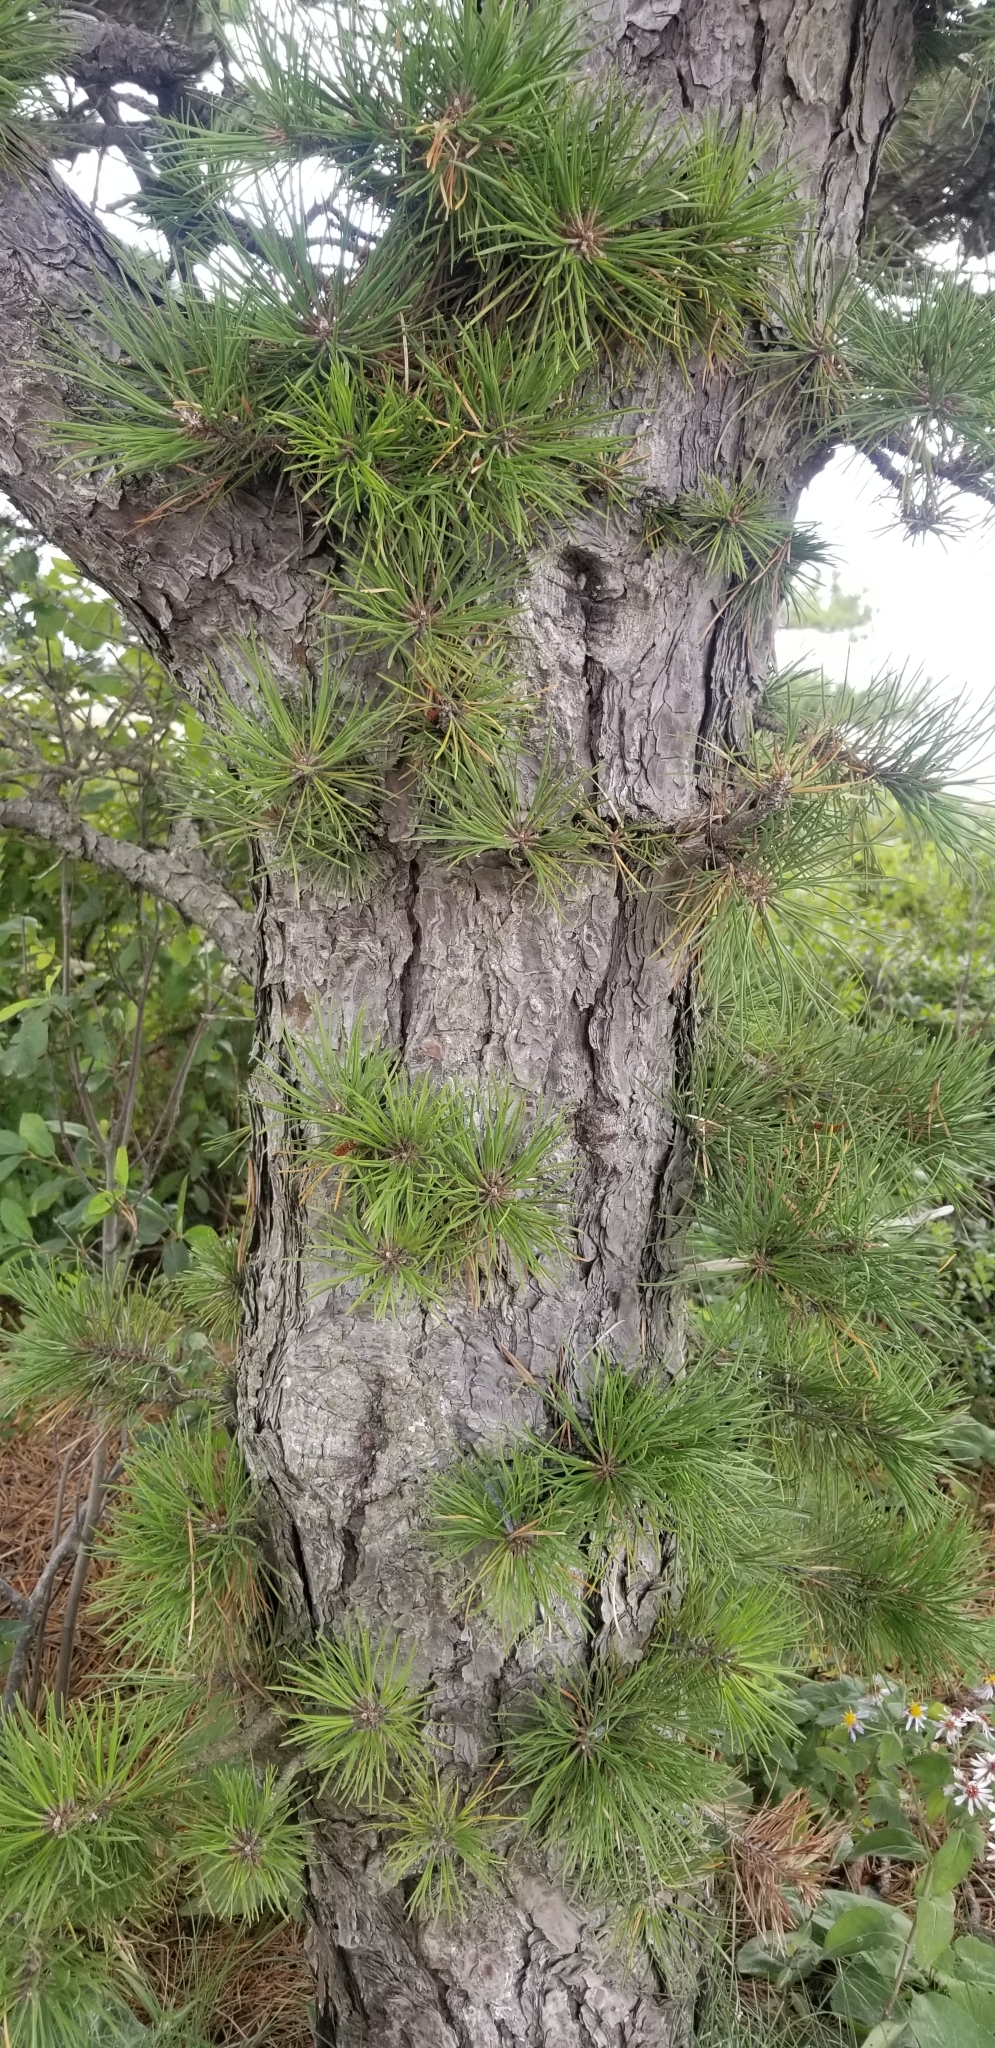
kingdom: Plantae
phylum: Tracheophyta
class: Pinopsida
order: Pinales
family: Pinaceae
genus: Pinus
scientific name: Pinus rigida
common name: Pitch pine
